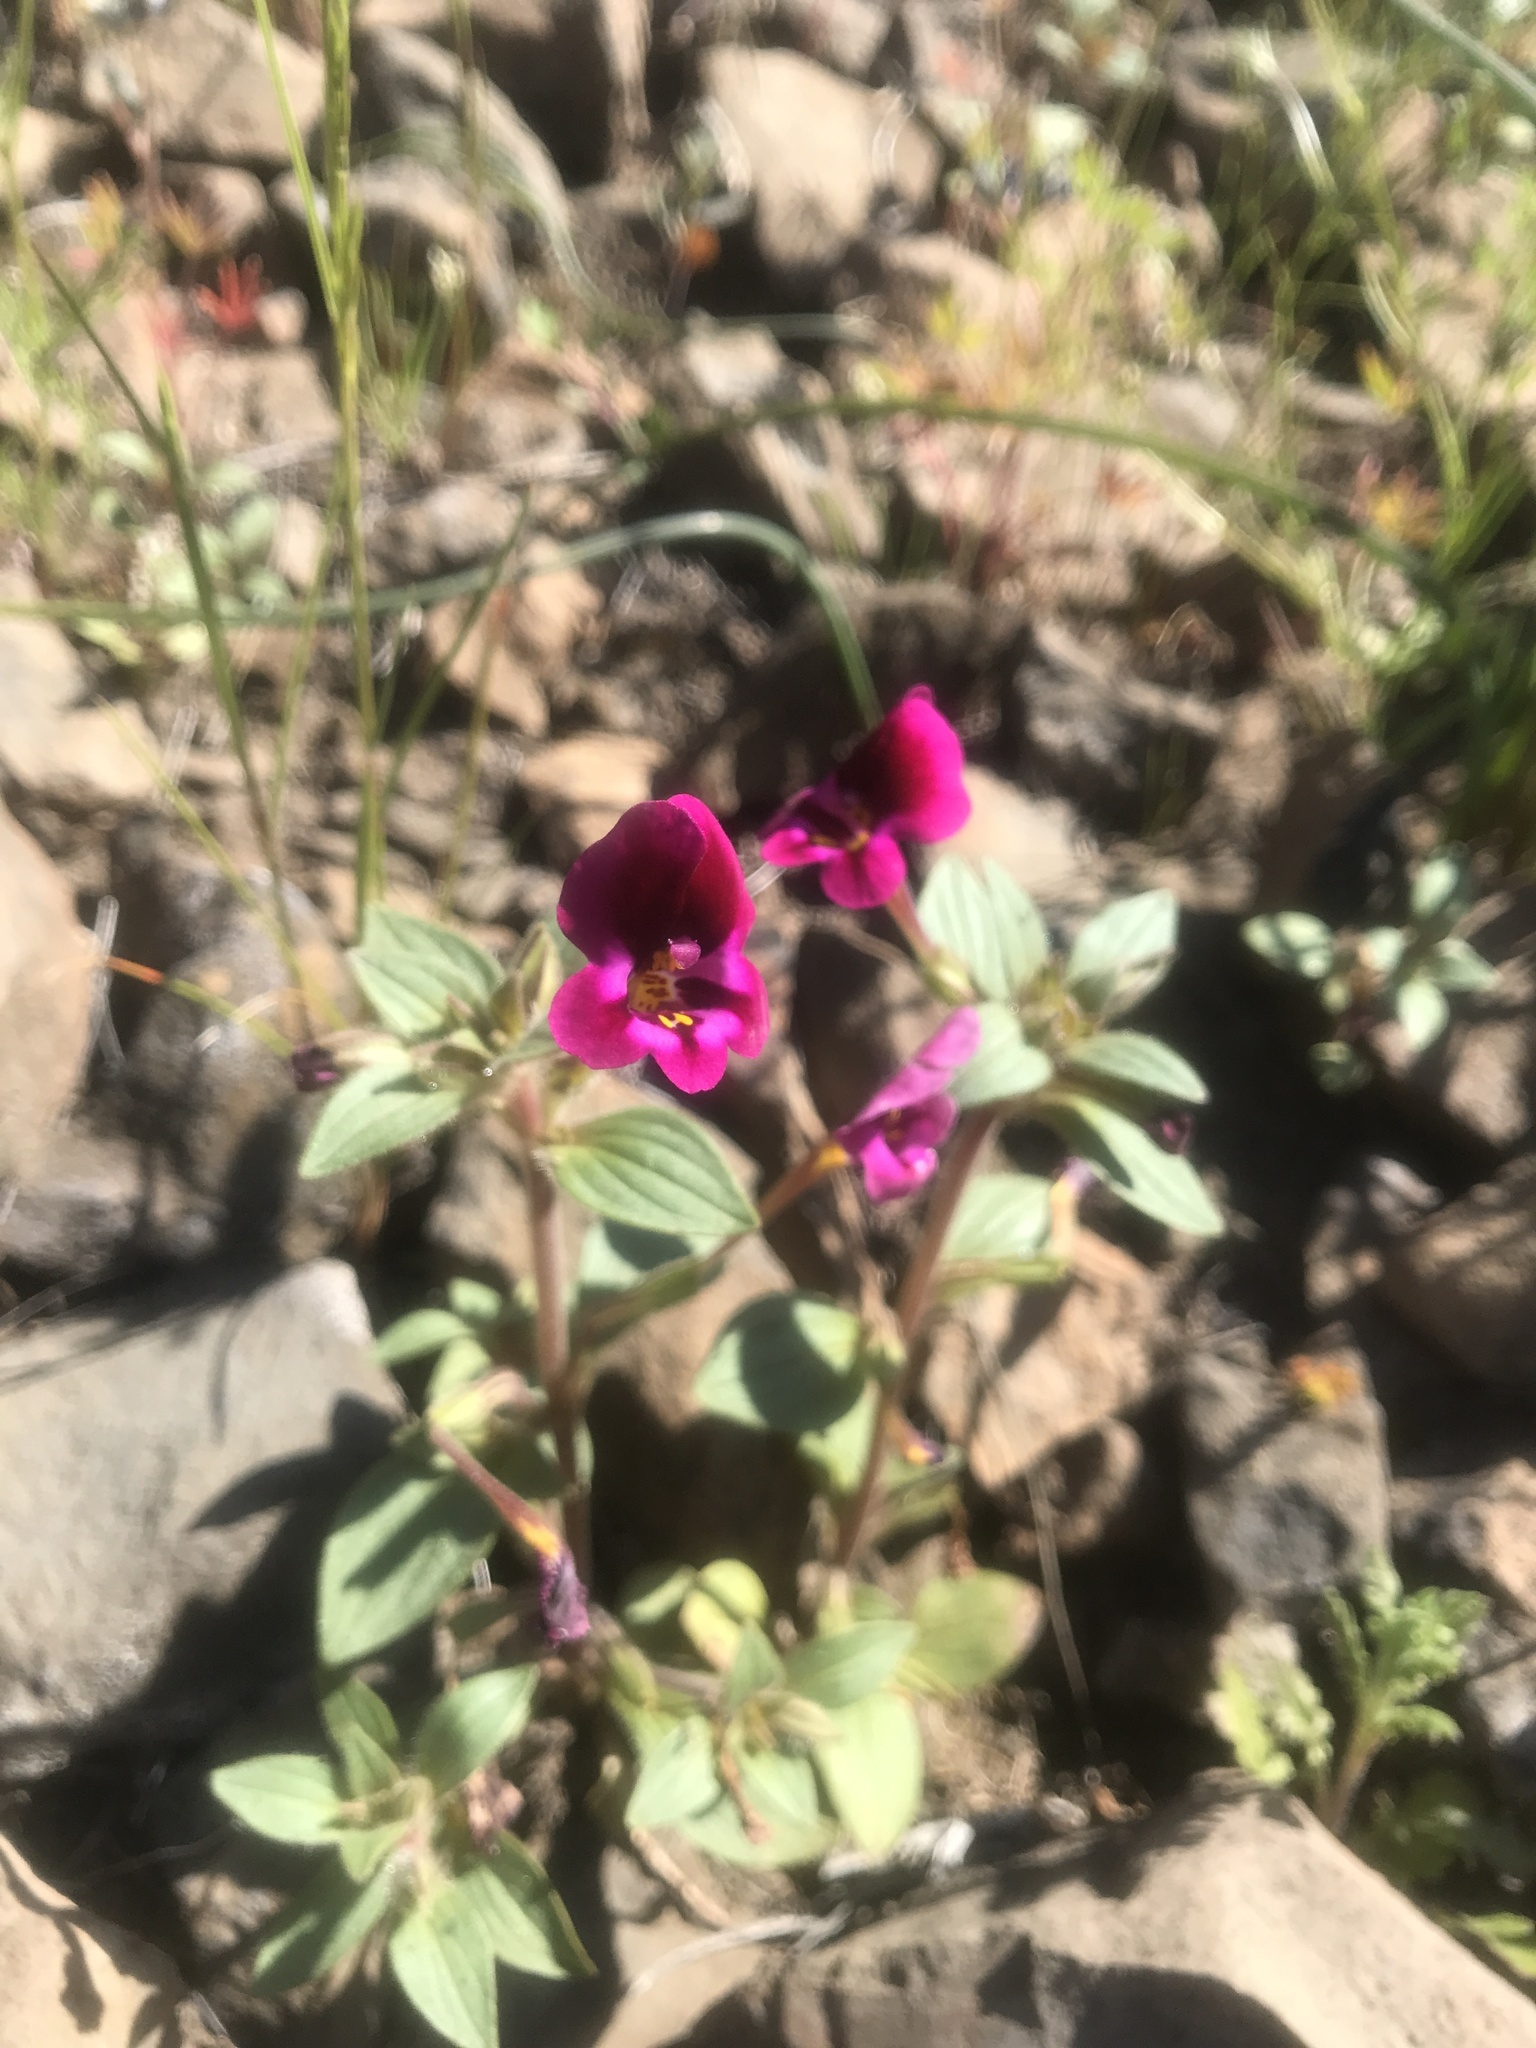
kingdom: Plantae
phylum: Tracheophyta
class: Magnoliopsida
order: Lamiales
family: Phrymaceae
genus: Diplacus
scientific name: Diplacus kelloggii
